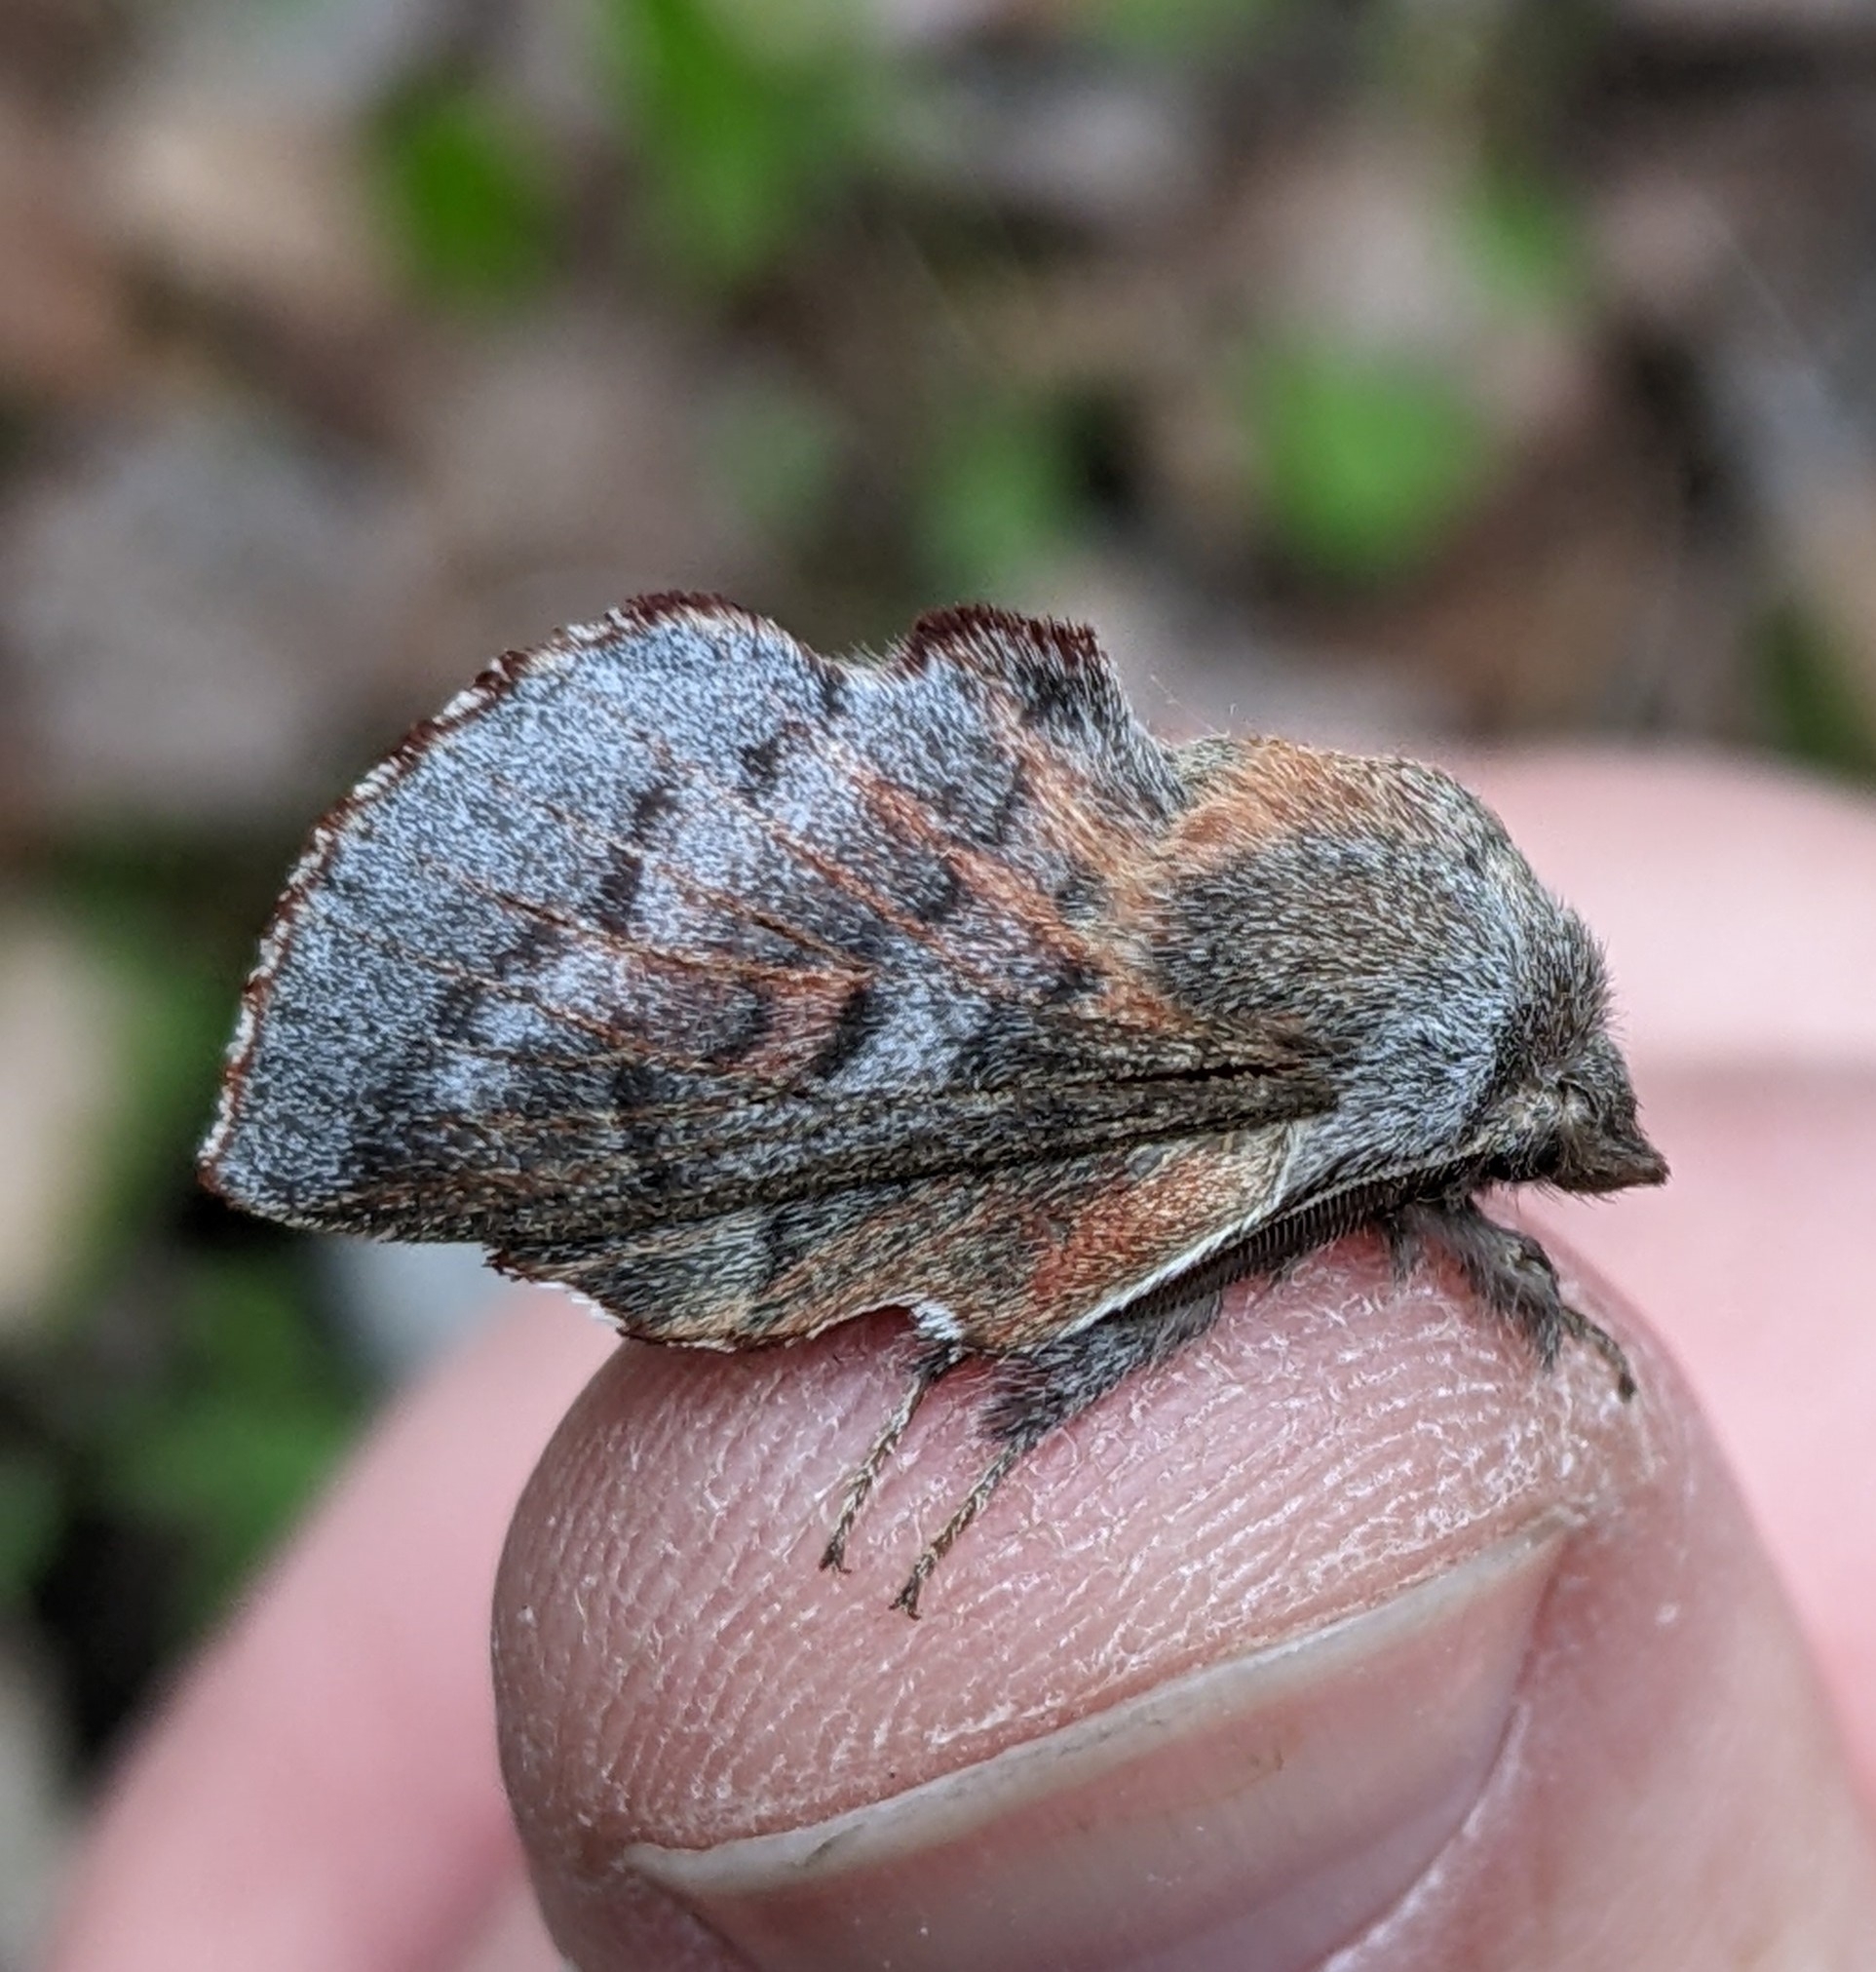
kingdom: Animalia
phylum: Arthropoda
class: Insecta
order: Lepidoptera
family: Lasiocampidae
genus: Phyllodesma
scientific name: Phyllodesma americana
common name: American lappet moth
